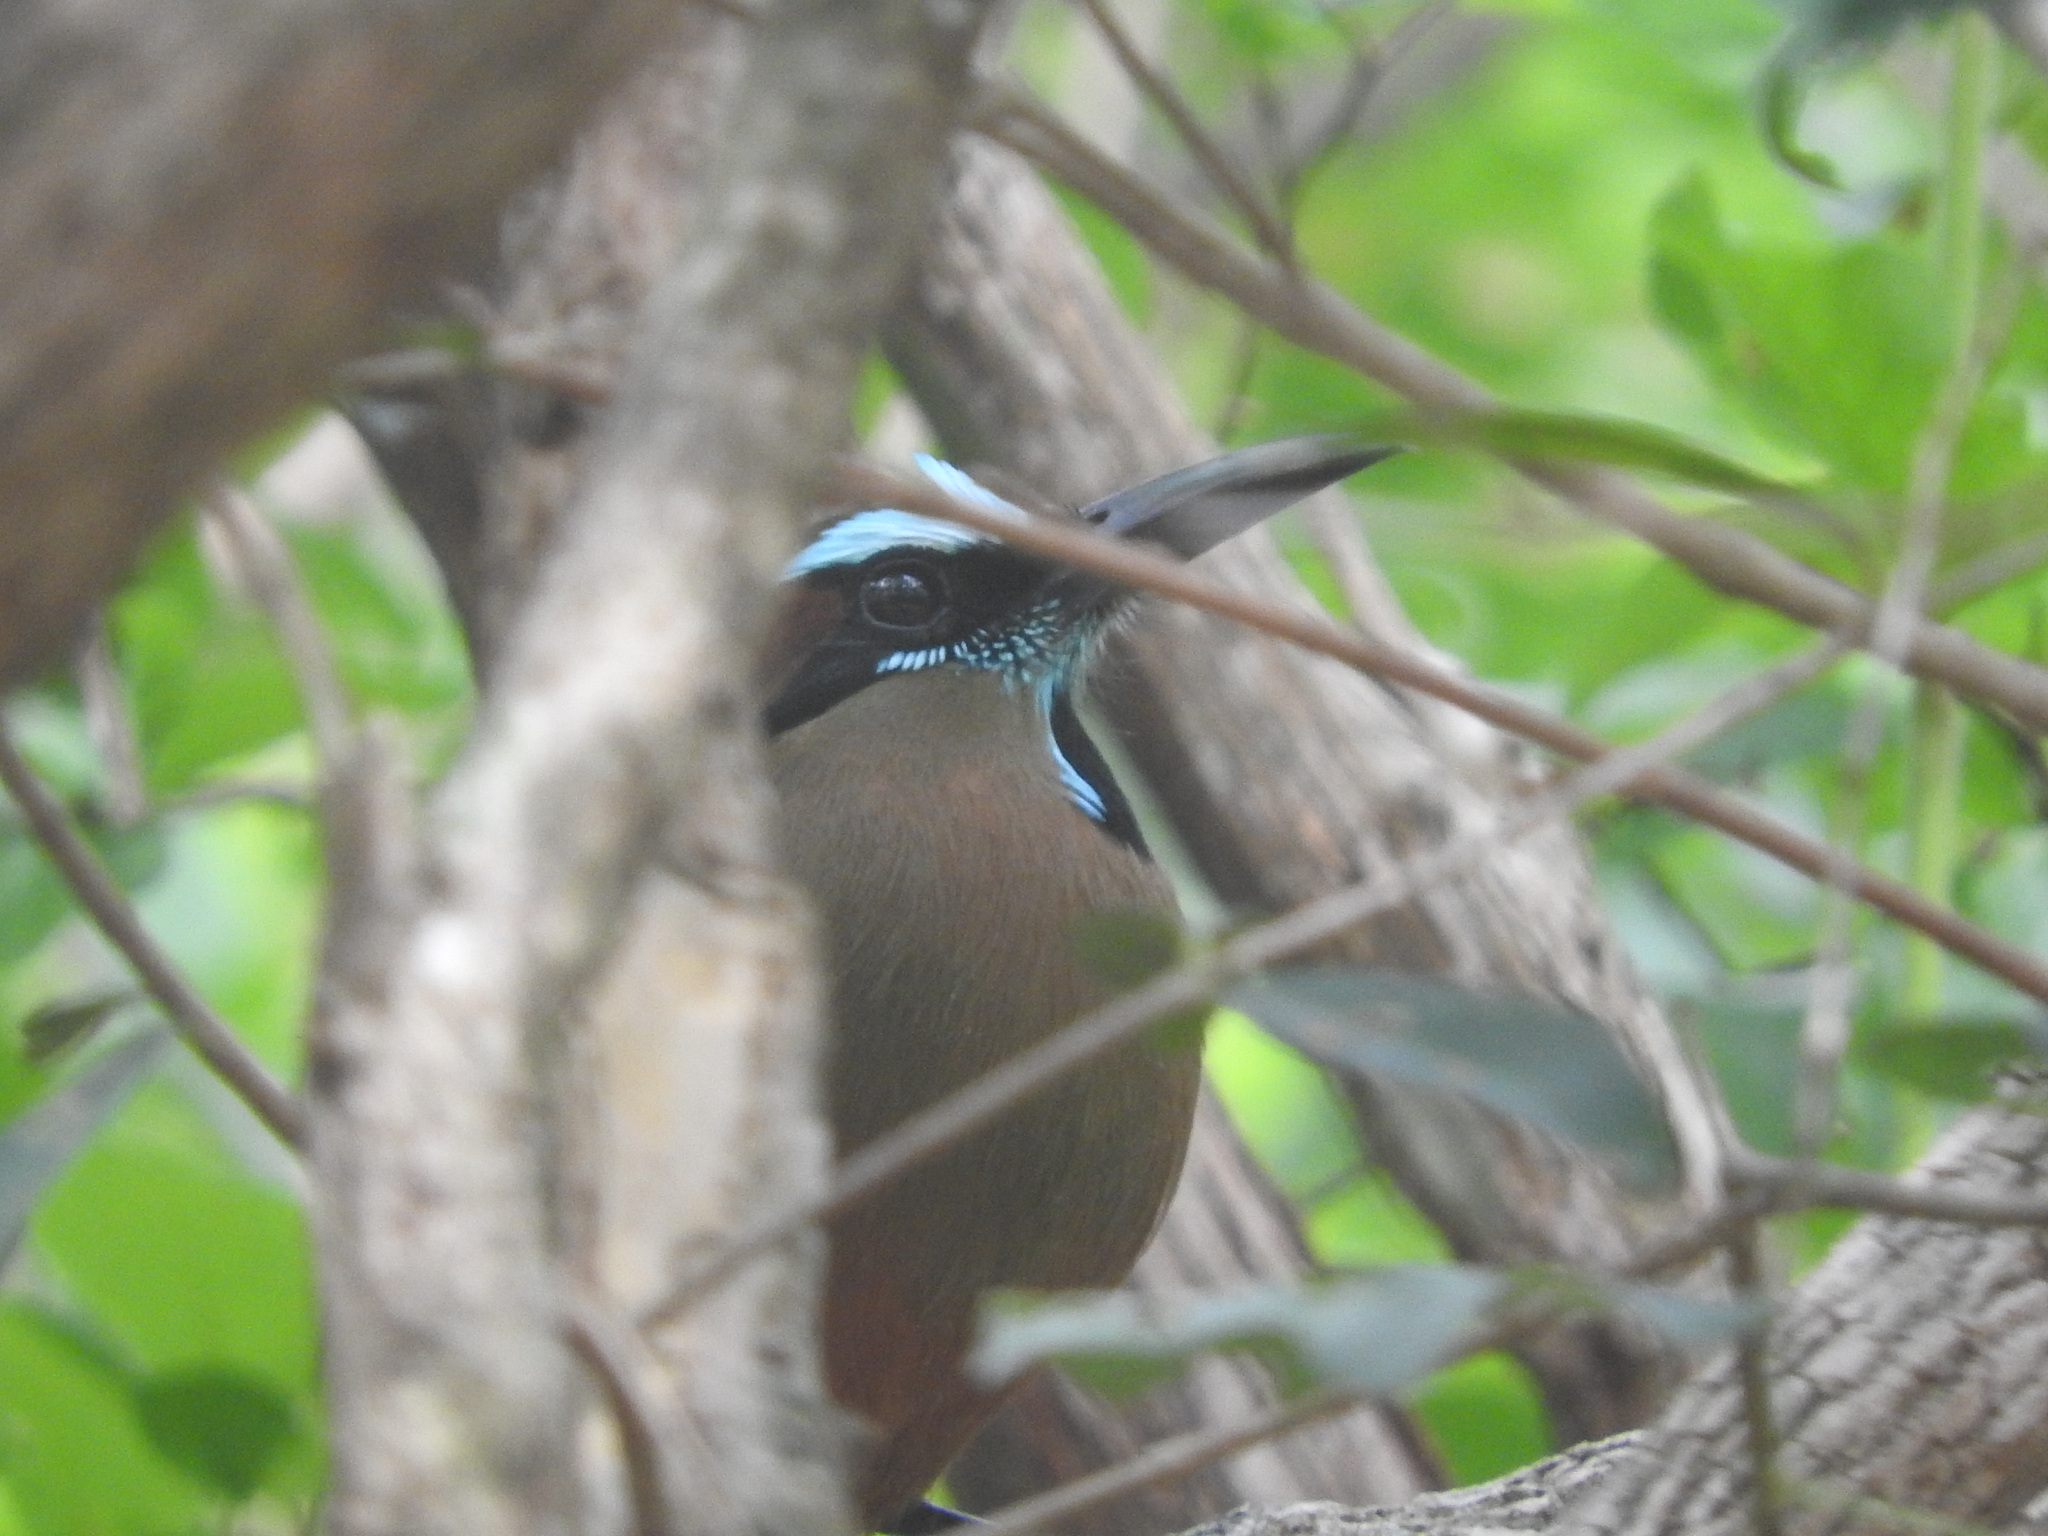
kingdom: Animalia
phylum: Chordata
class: Aves
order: Coraciiformes
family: Momotidae
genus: Eumomota
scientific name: Eumomota superciliosa
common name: Turquoise-browed motmot
